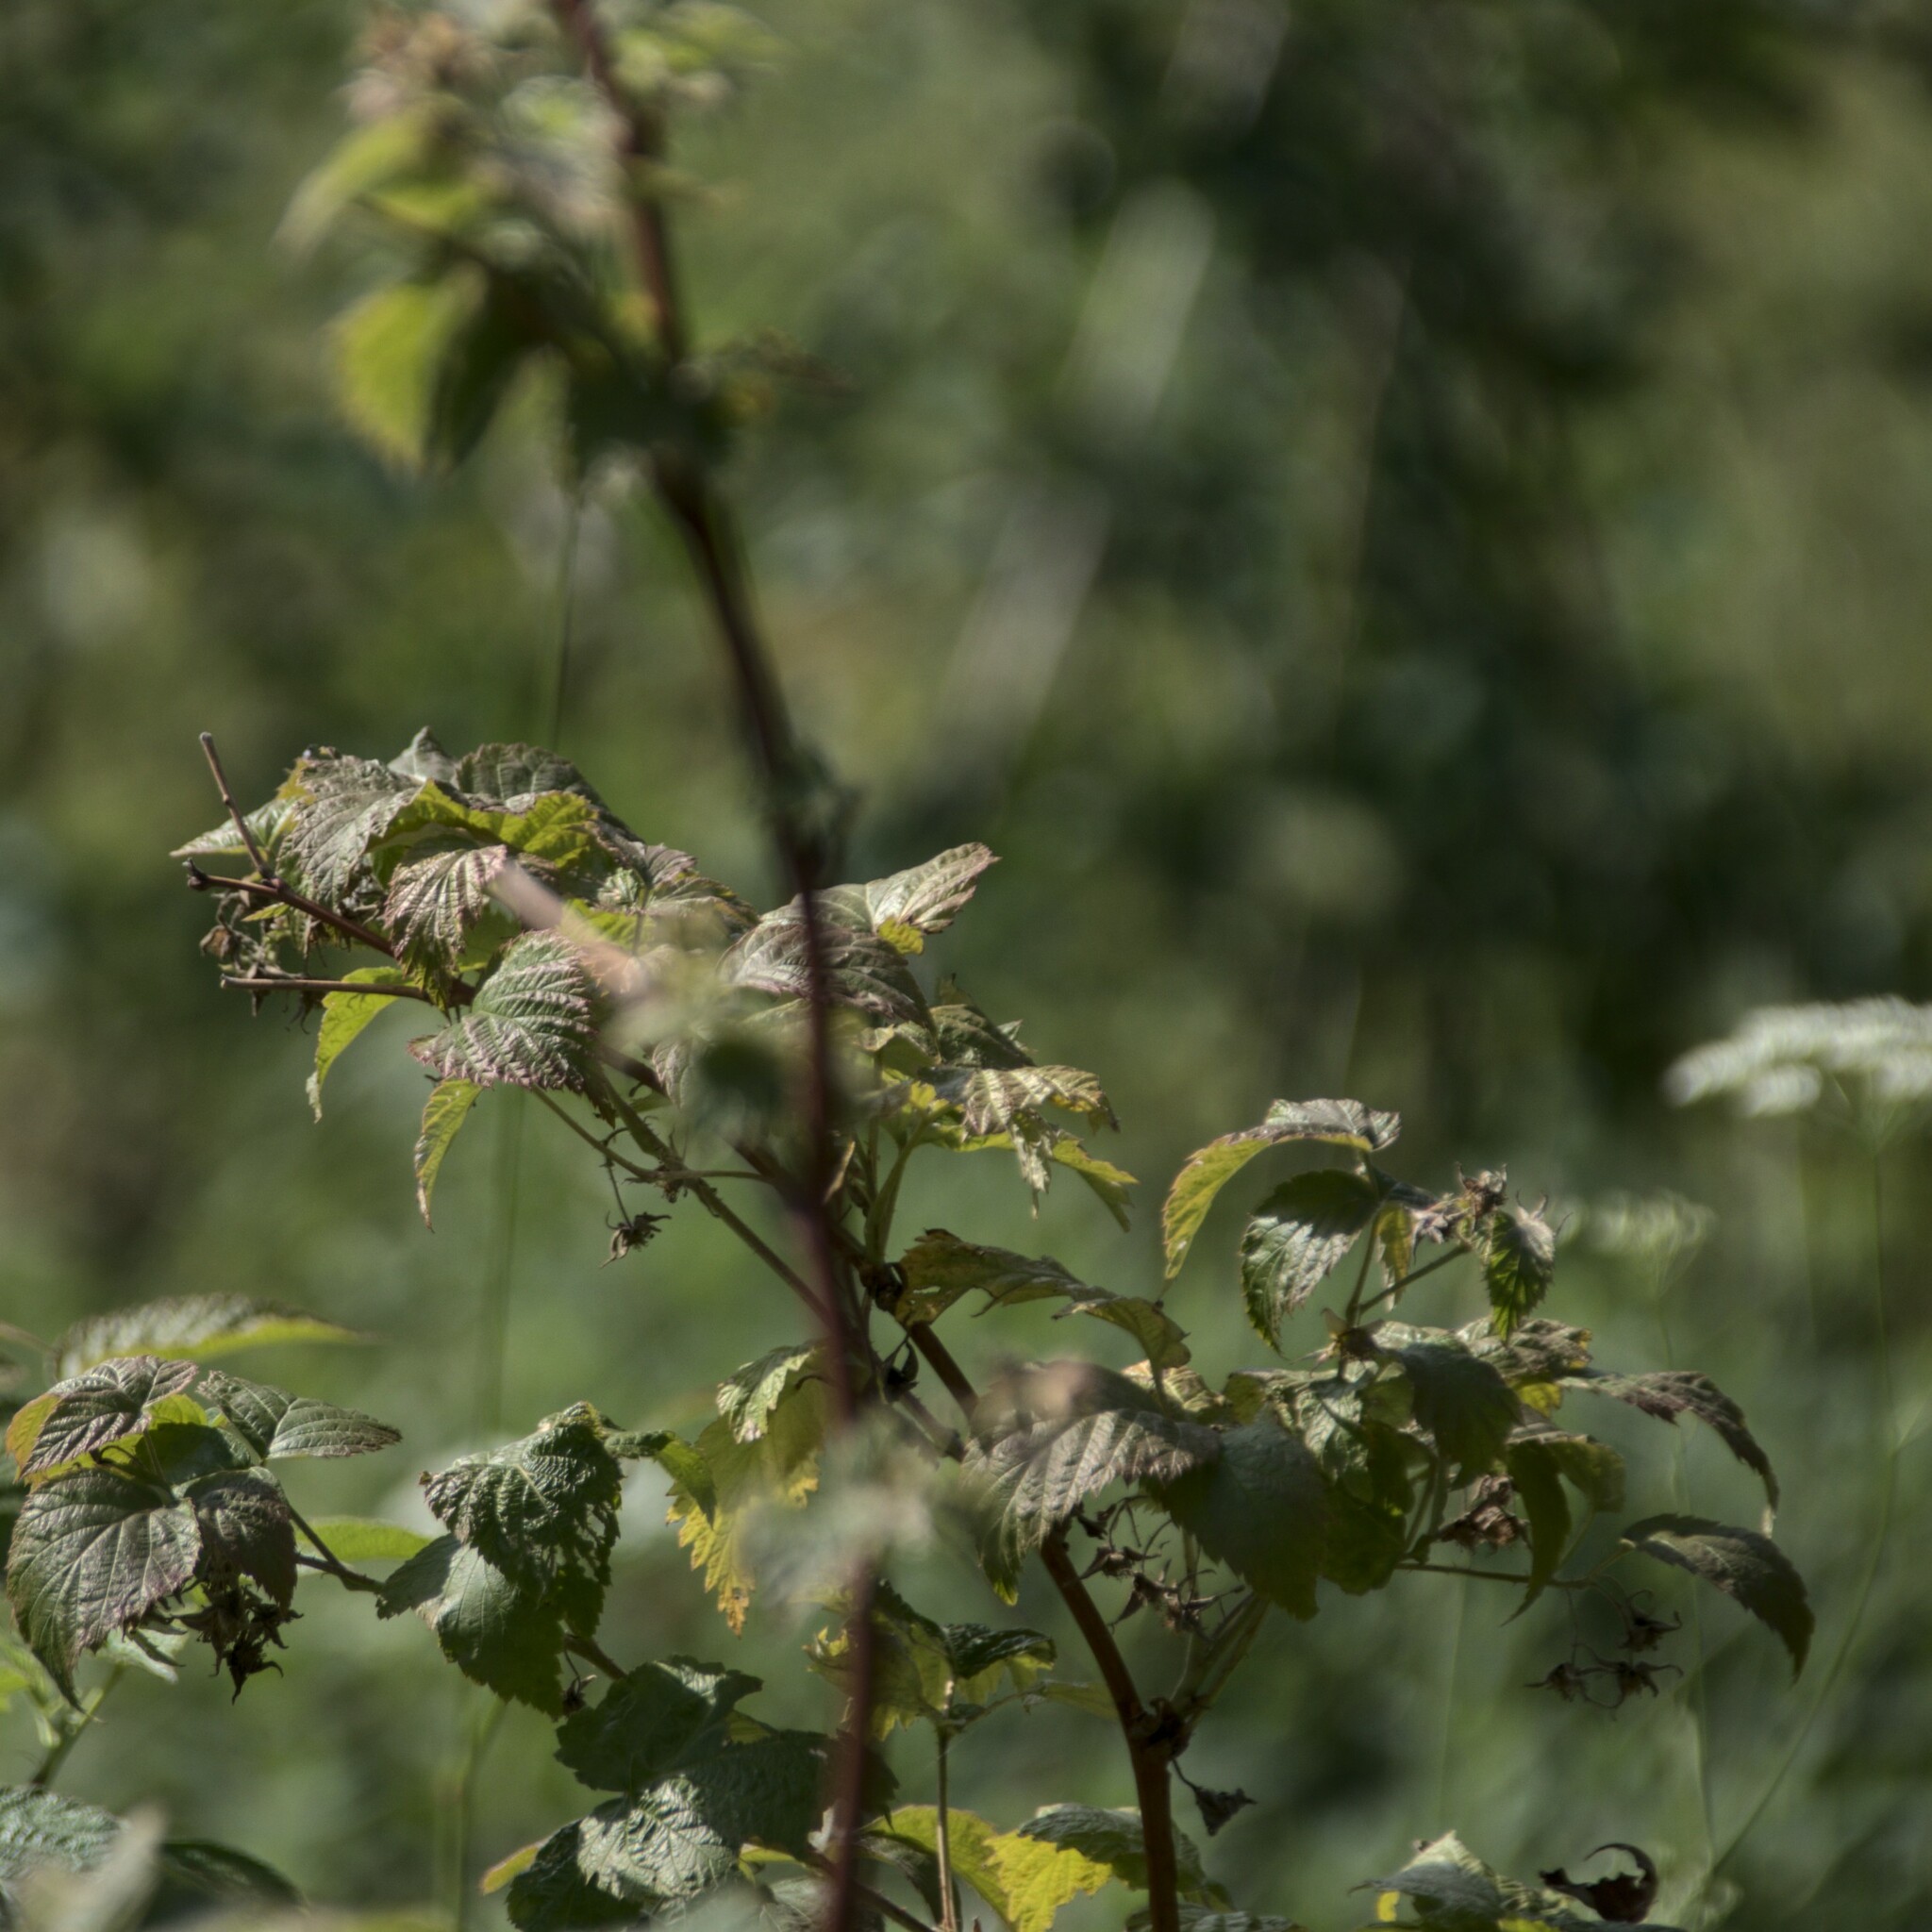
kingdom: Plantae
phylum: Tracheophyta
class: Magnoliopsida
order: Rosales
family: Rosaceae
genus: Rubus
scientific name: Rubus idaeus
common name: Raspberry
